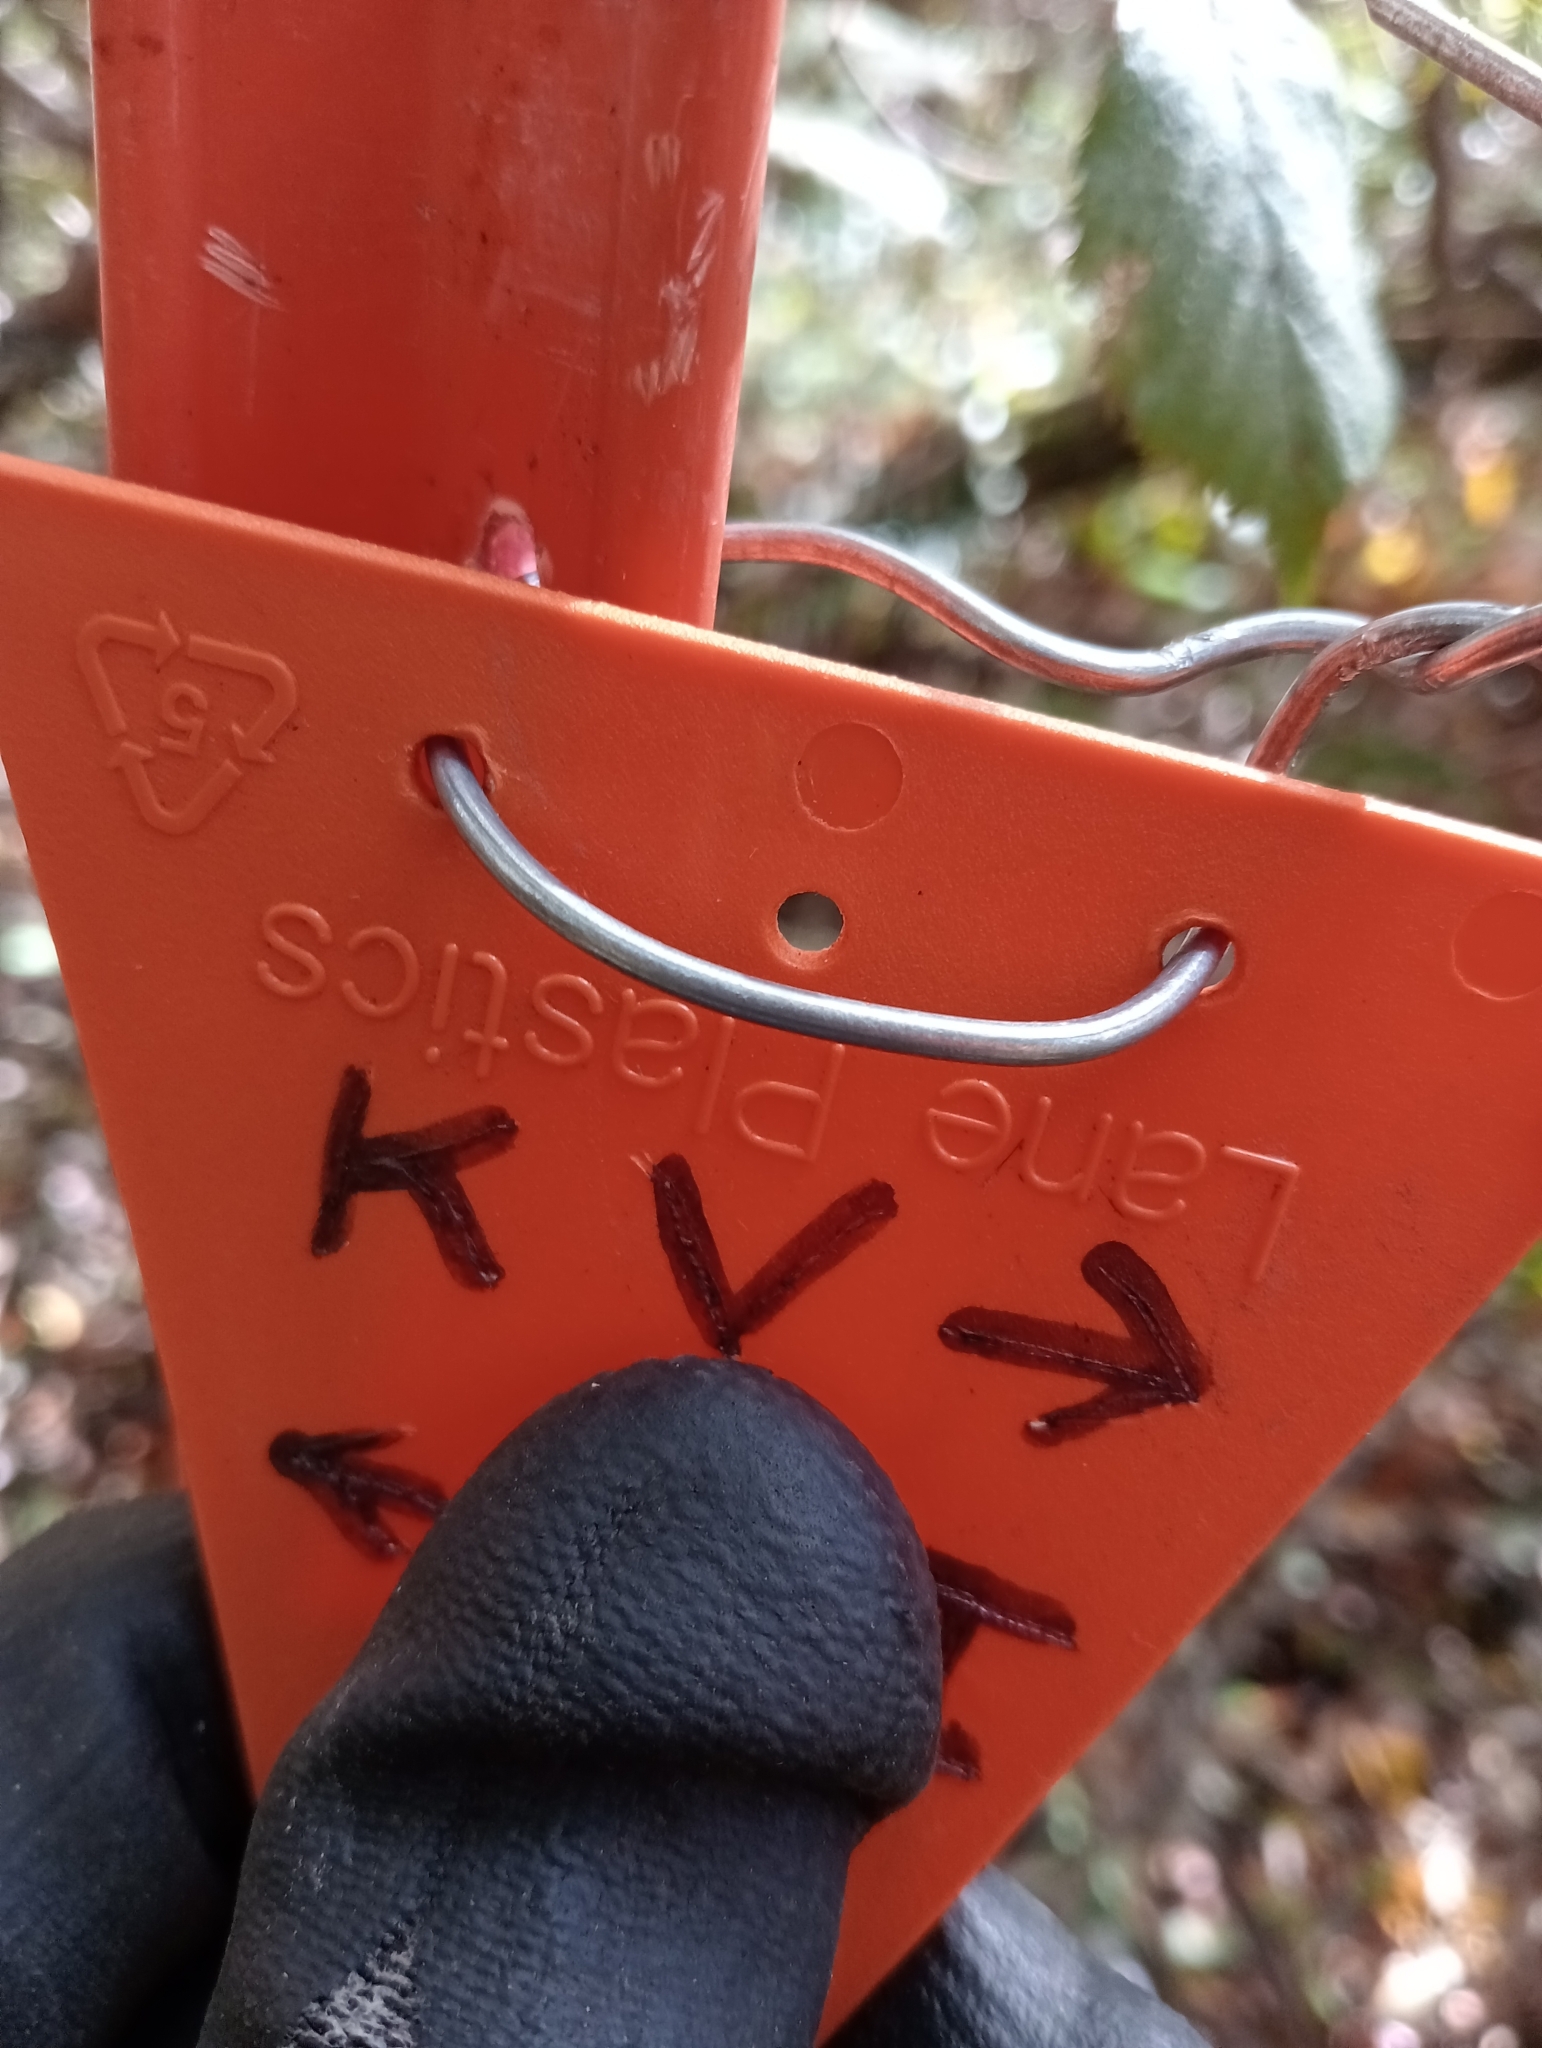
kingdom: Plantae
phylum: Tracheophyta
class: Pinopsida
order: Pinales
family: Podocarpaceae
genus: Dacrycarpus
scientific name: Dacrycarpus dacrydioides
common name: White pine
